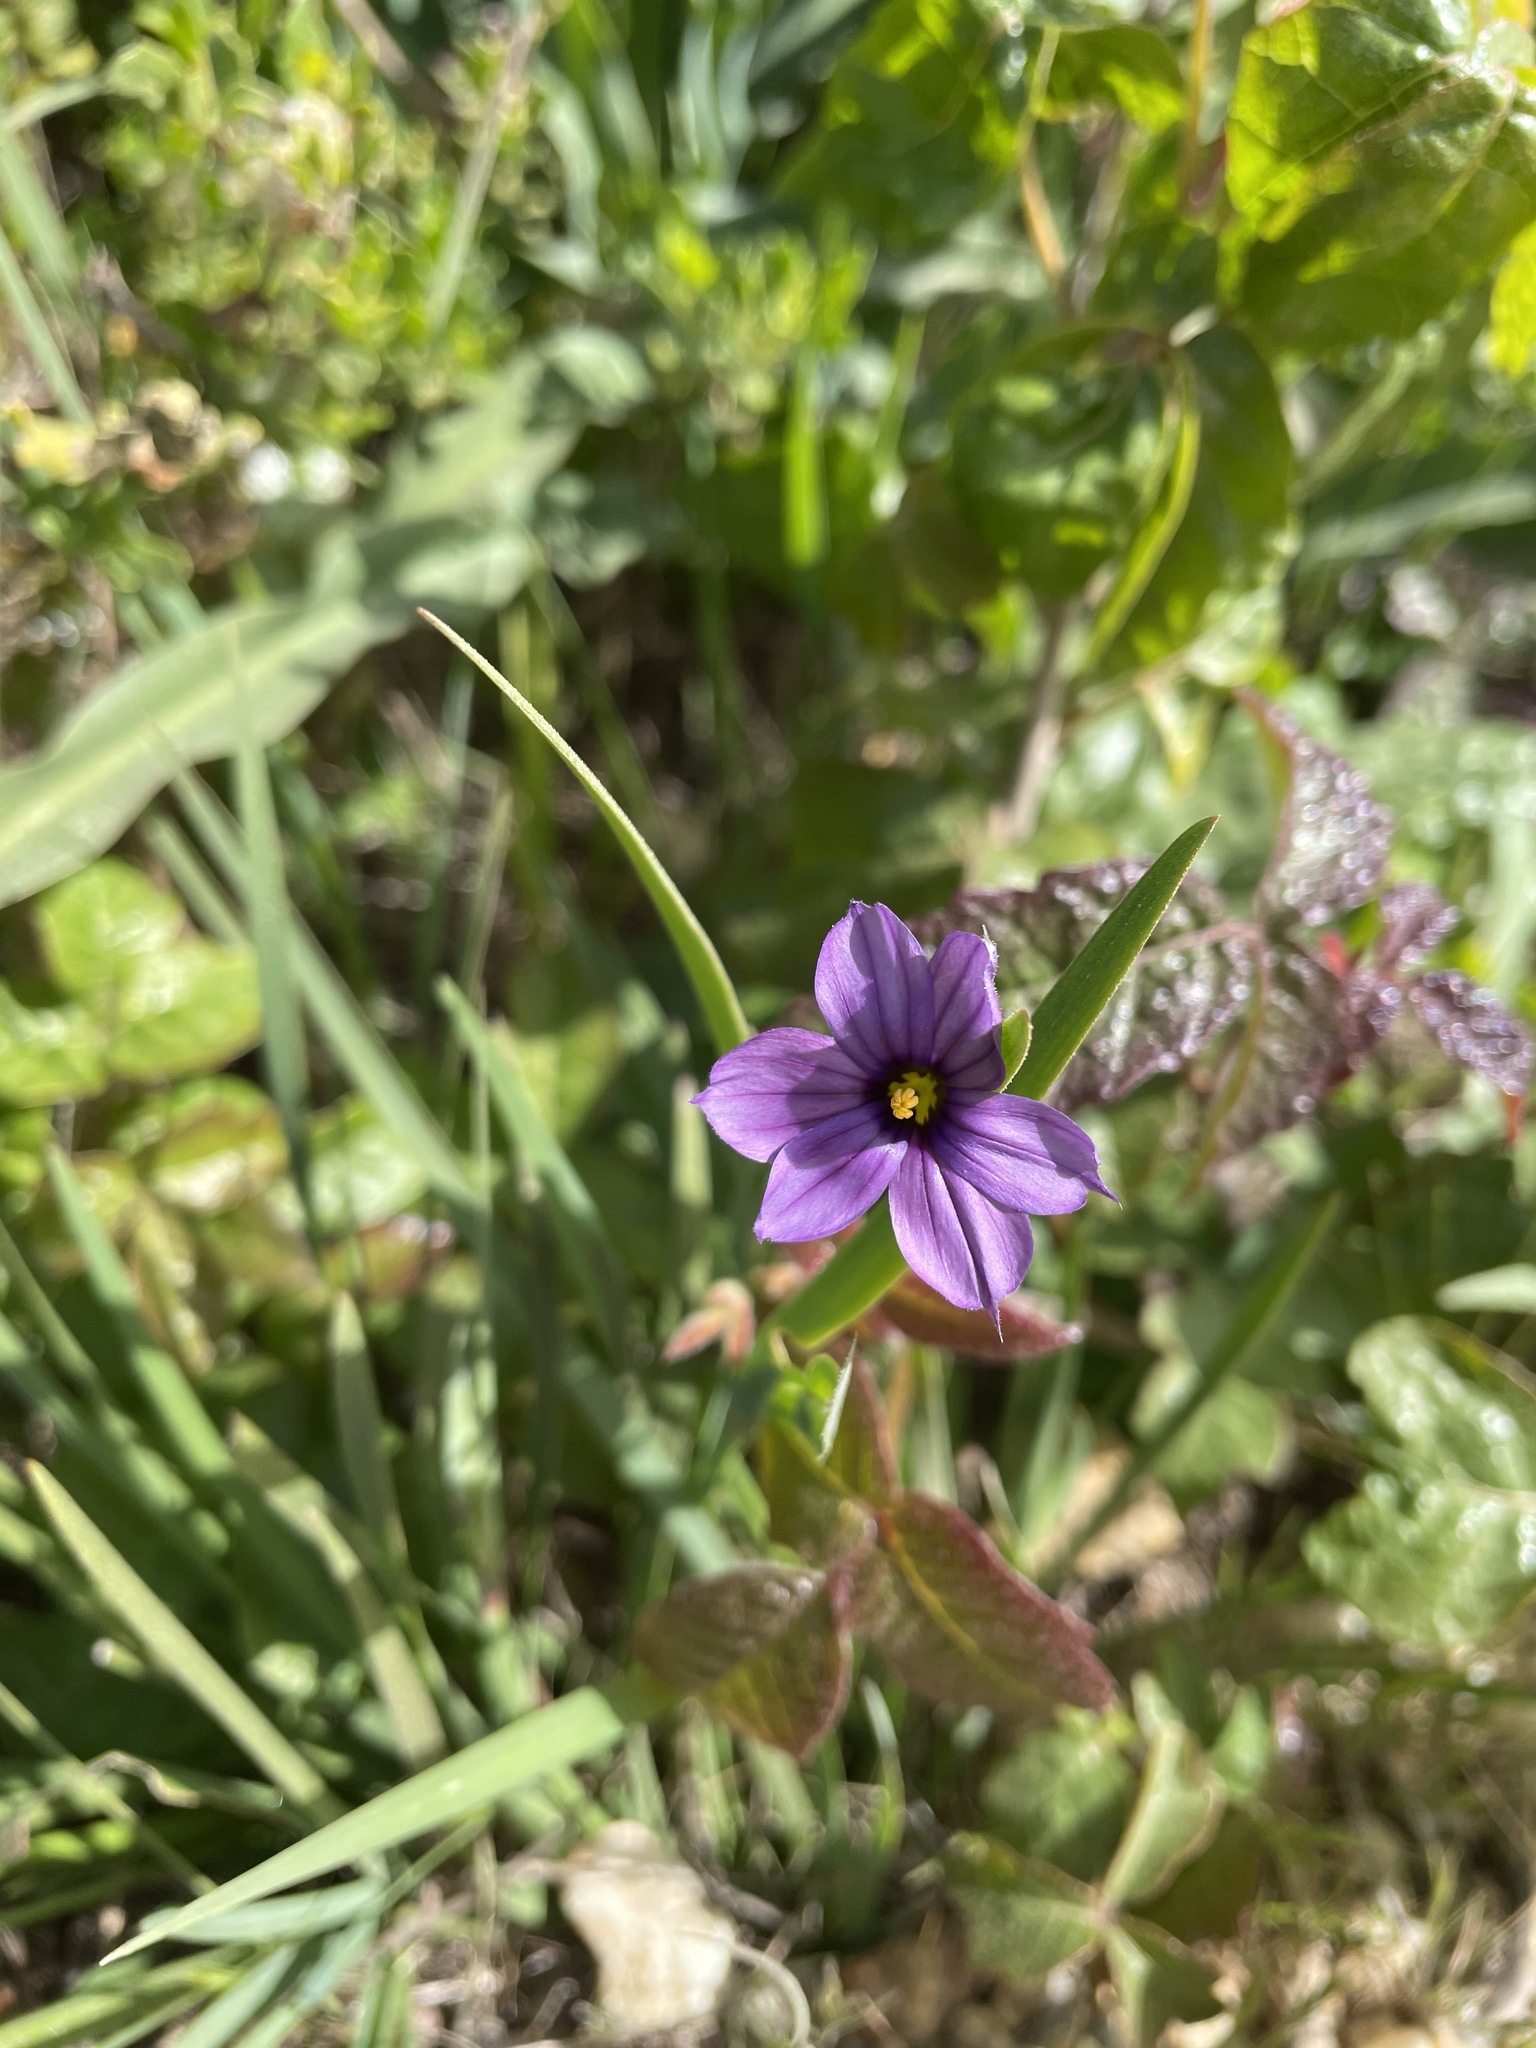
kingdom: Plantae
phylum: Tracheophyta
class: Liliopsida
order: Asparagales
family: Iridaceae
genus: Sisyrinchium
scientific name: Sisyrinchium bellum
